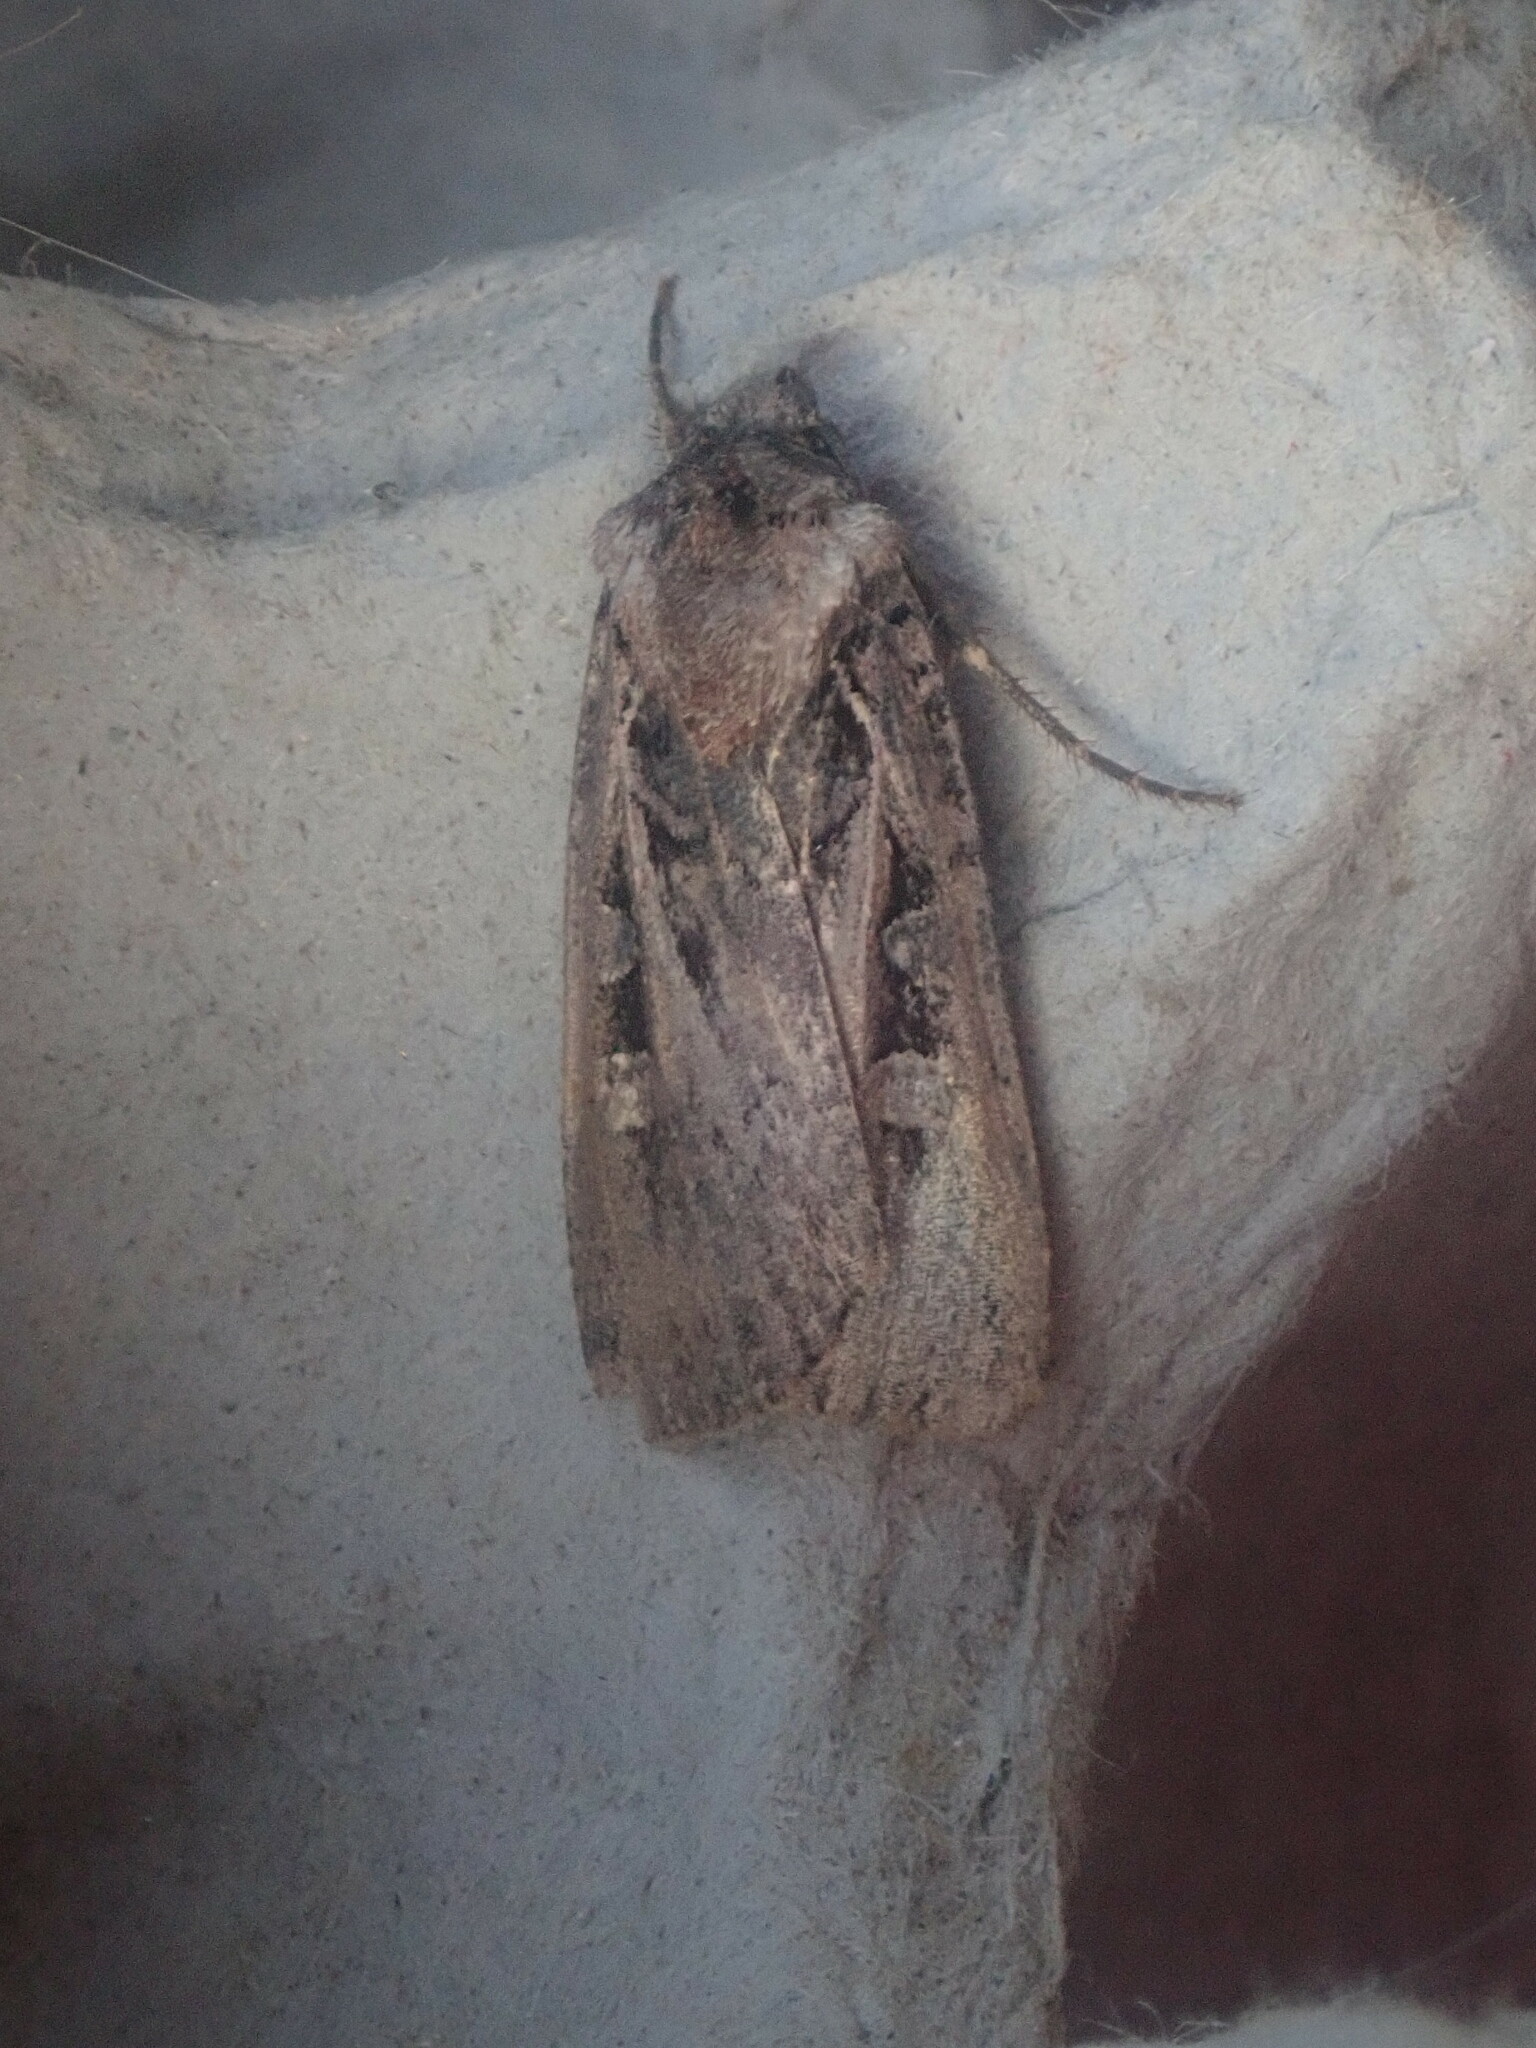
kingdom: Animalia
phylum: Arthropoda
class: Insecta
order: Lepidoptera
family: Noctuidae
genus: Feltia
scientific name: Feltia herilis
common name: Master's dart
